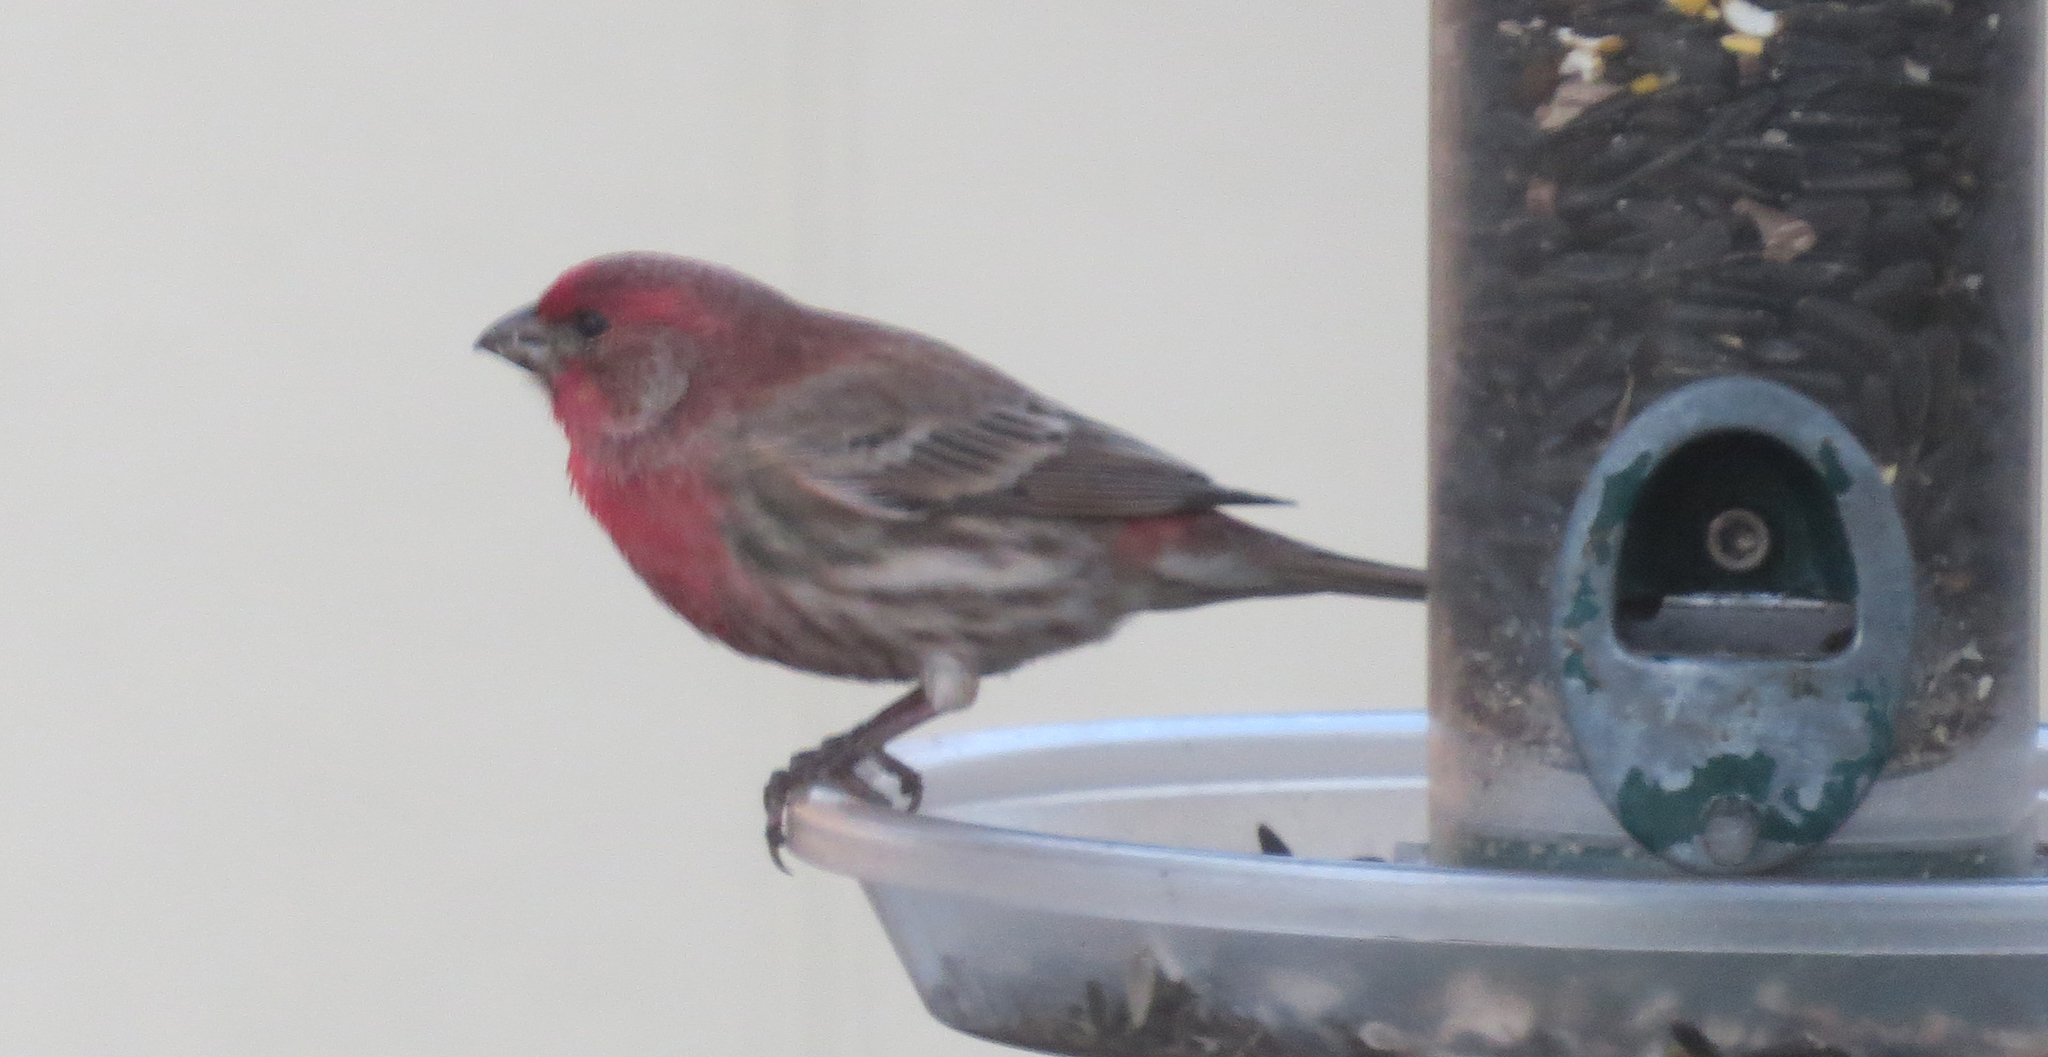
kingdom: Animalia
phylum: Chordata
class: Aves
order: Passeriformes
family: Fringillidae
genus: Haemorhous
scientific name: Haemorhous mexicanus
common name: House finch
